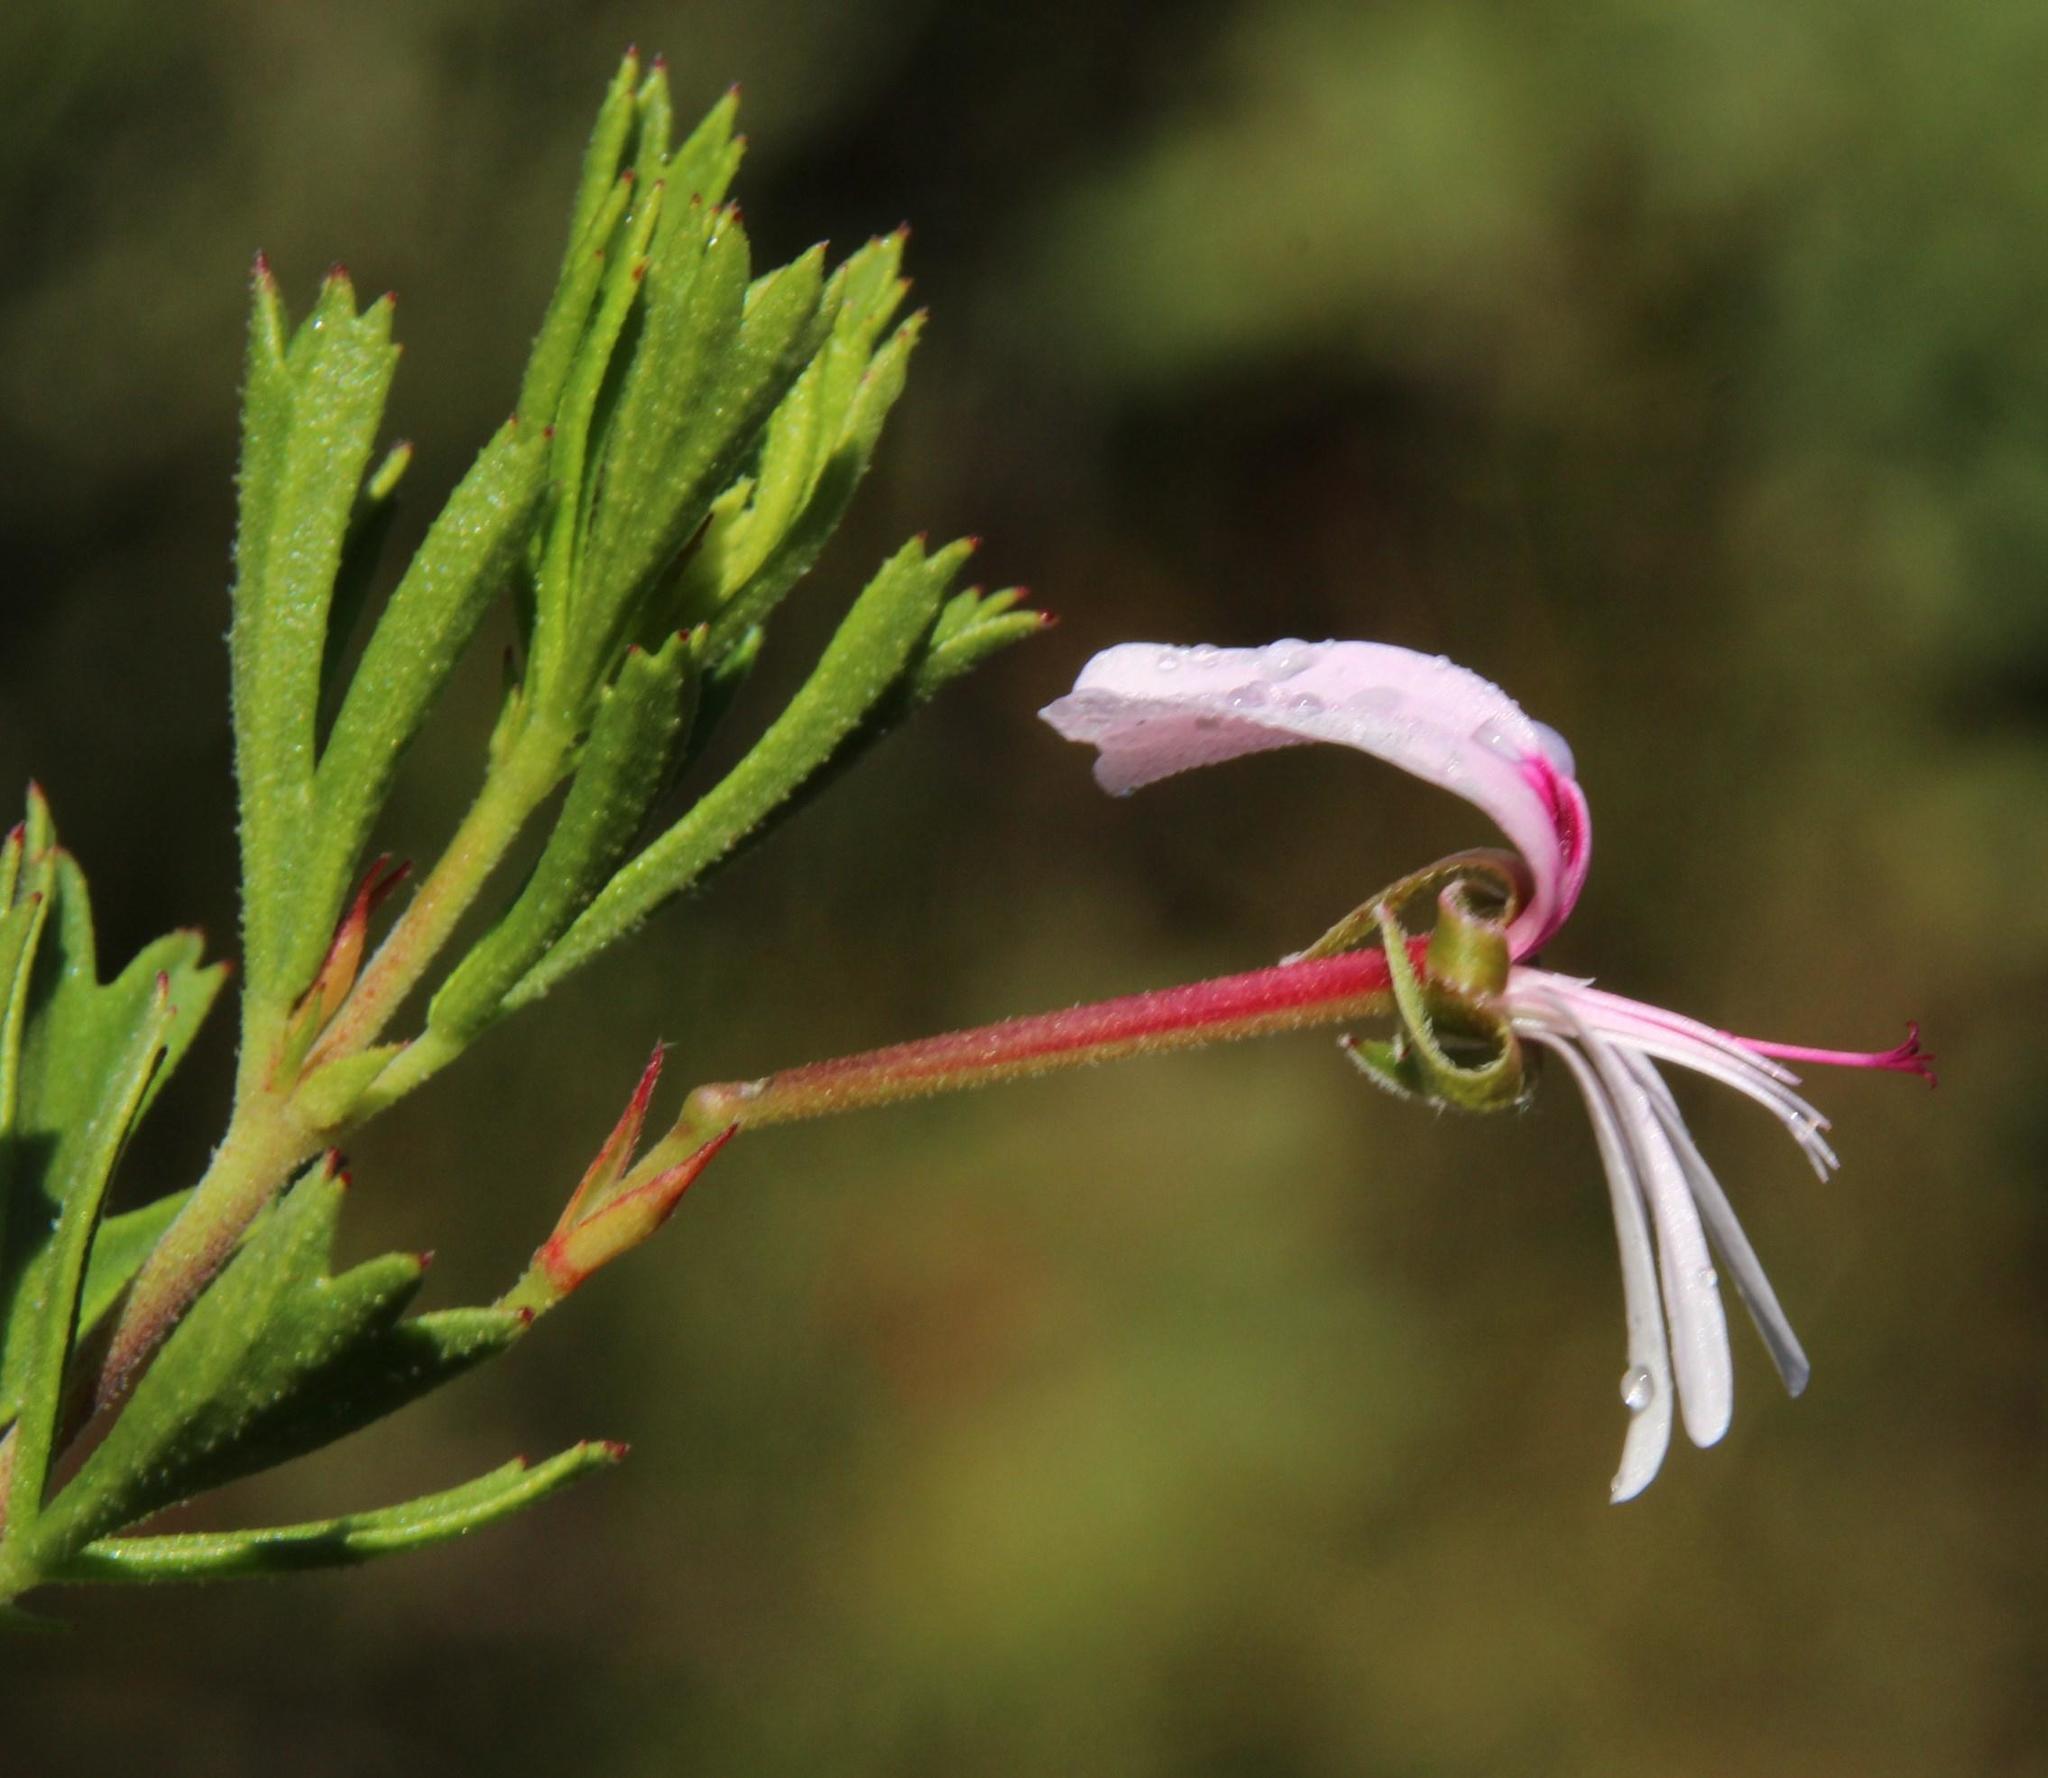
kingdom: Plantae
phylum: Tracheophyta
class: Magnoliopsida
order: Geraniales
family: Geraniaceae
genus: Pelargonium
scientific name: Pelargonium ternatum
